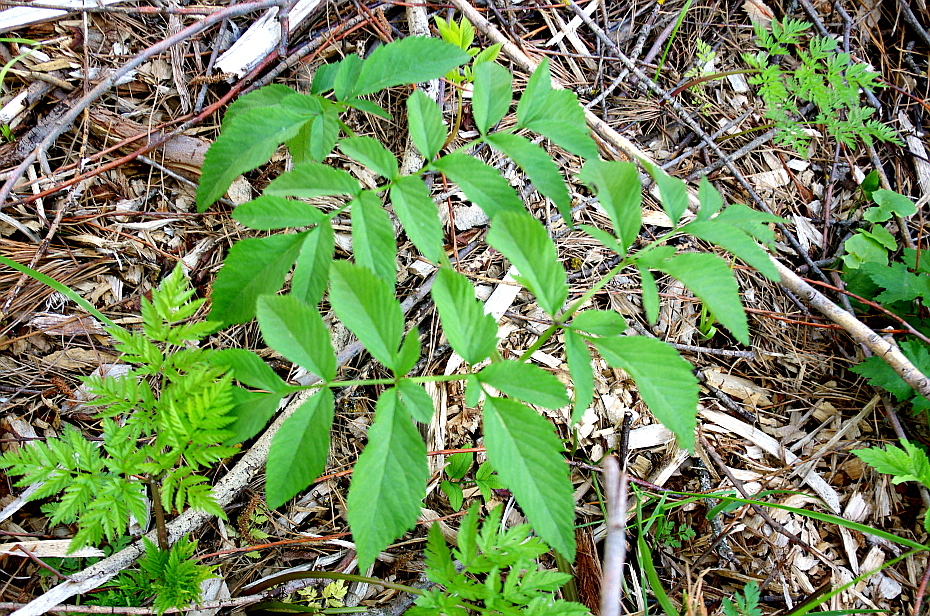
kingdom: Plantae
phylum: Tracheophyta
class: Magnoliopsida
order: Apiales
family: Apiaceae
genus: Angelica
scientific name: Angelica sylvestris
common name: Wild angelica
